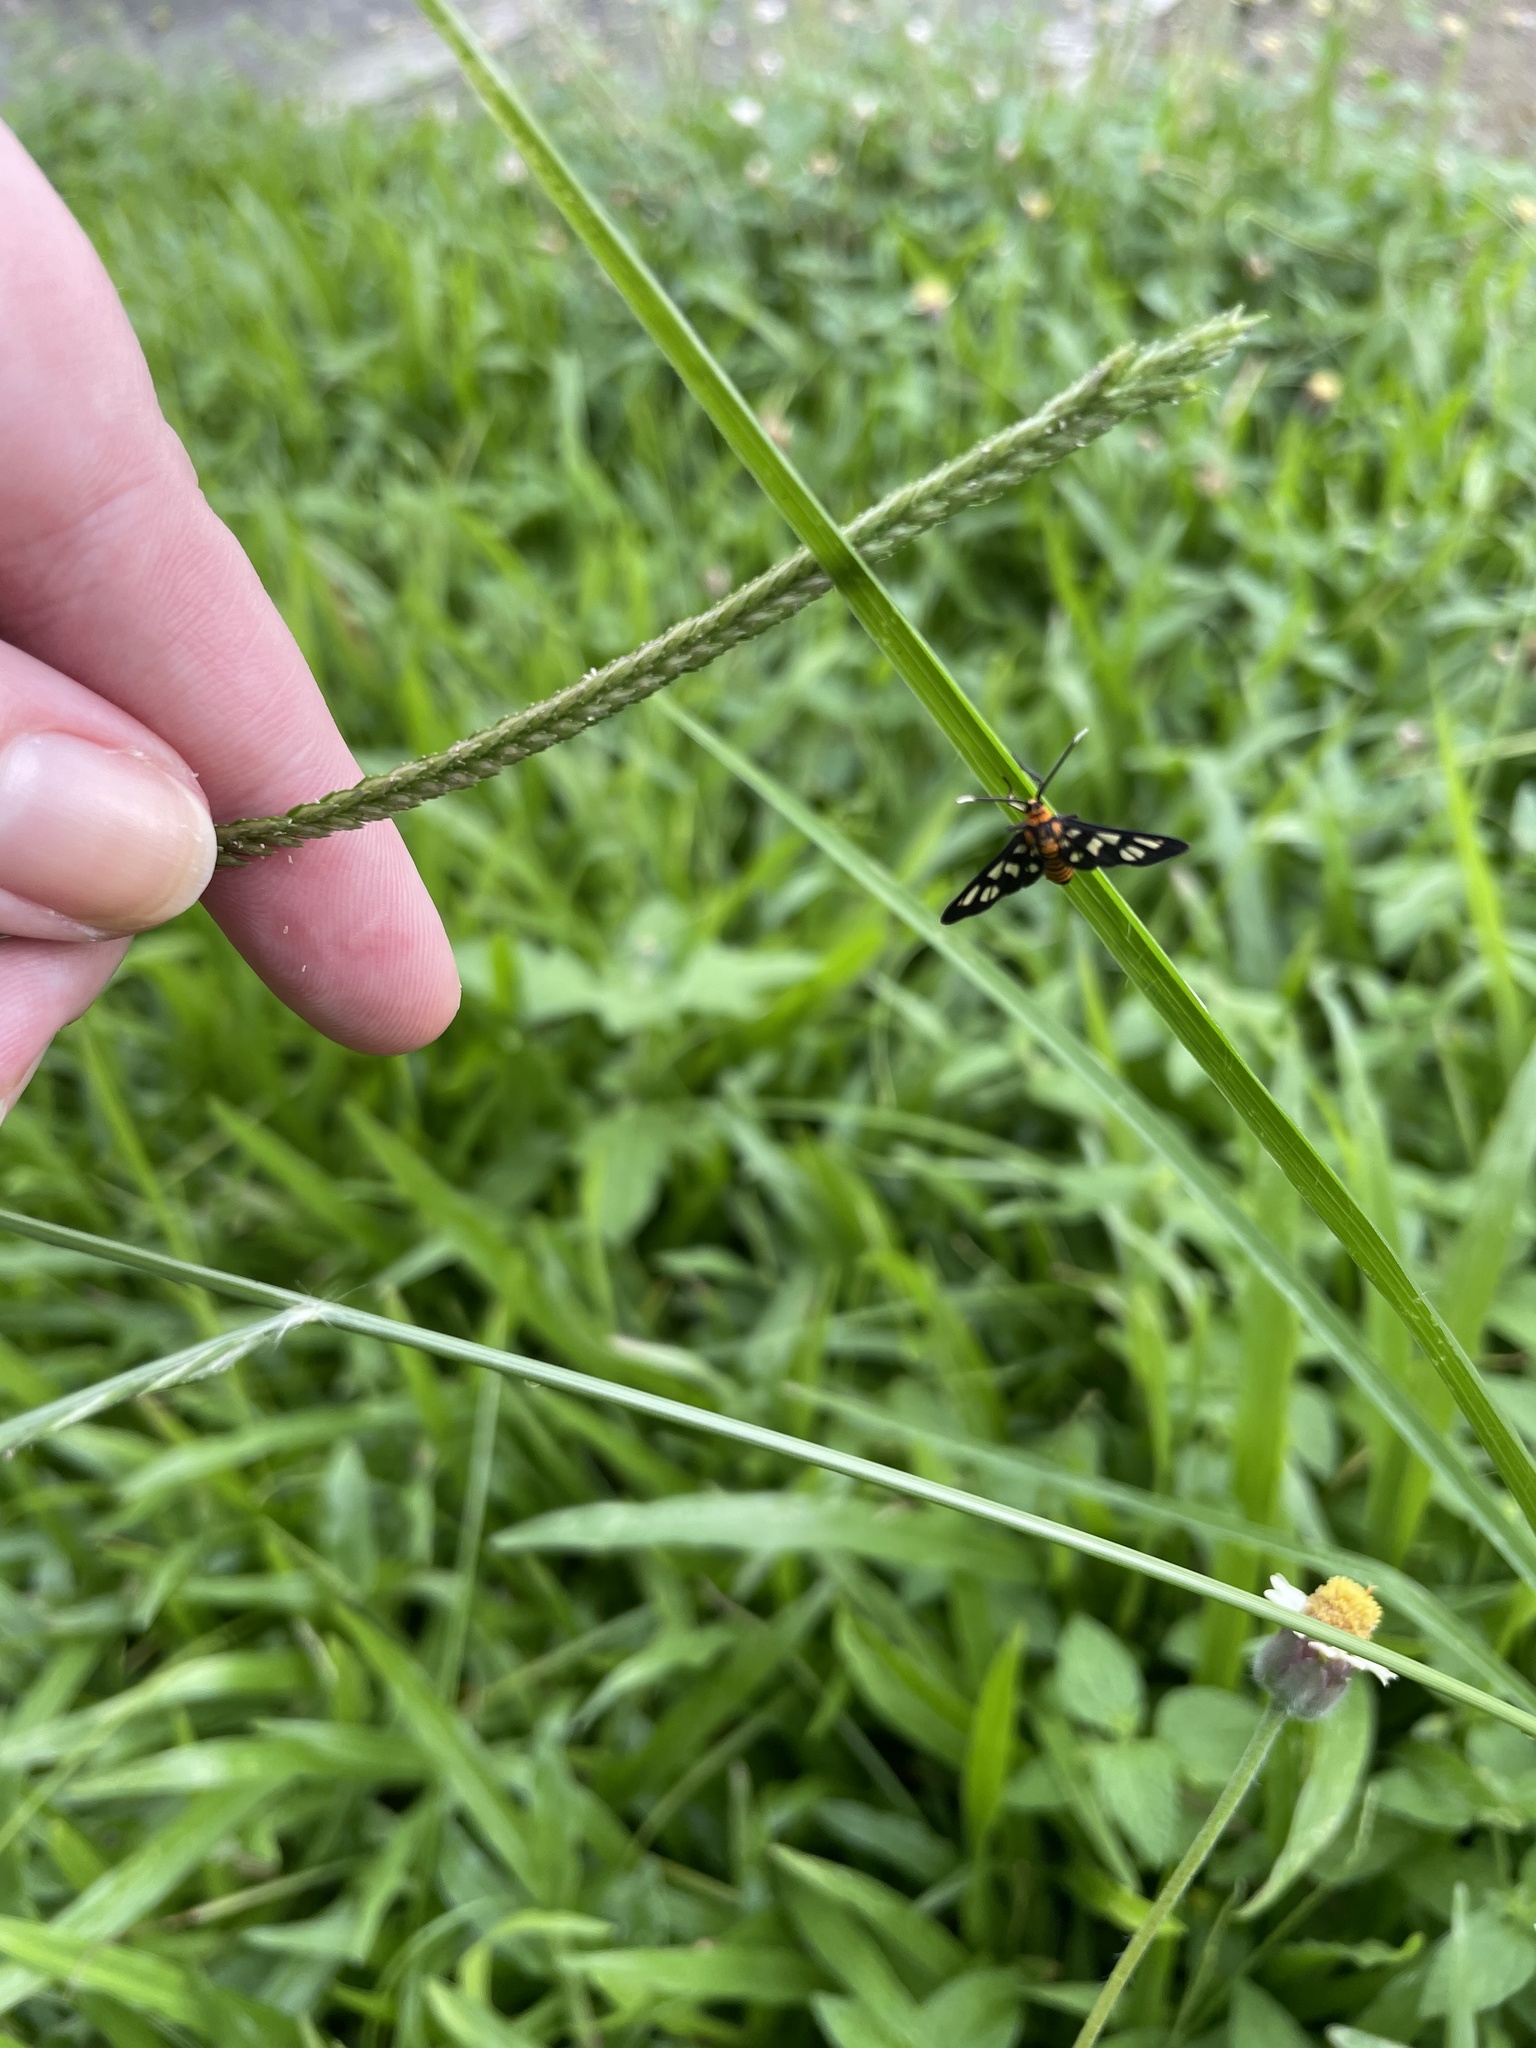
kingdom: Animalia
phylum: Arthropoda
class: Insecta
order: Lepidoptera
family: Erebidae
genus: Amata
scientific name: Amata huebneri
